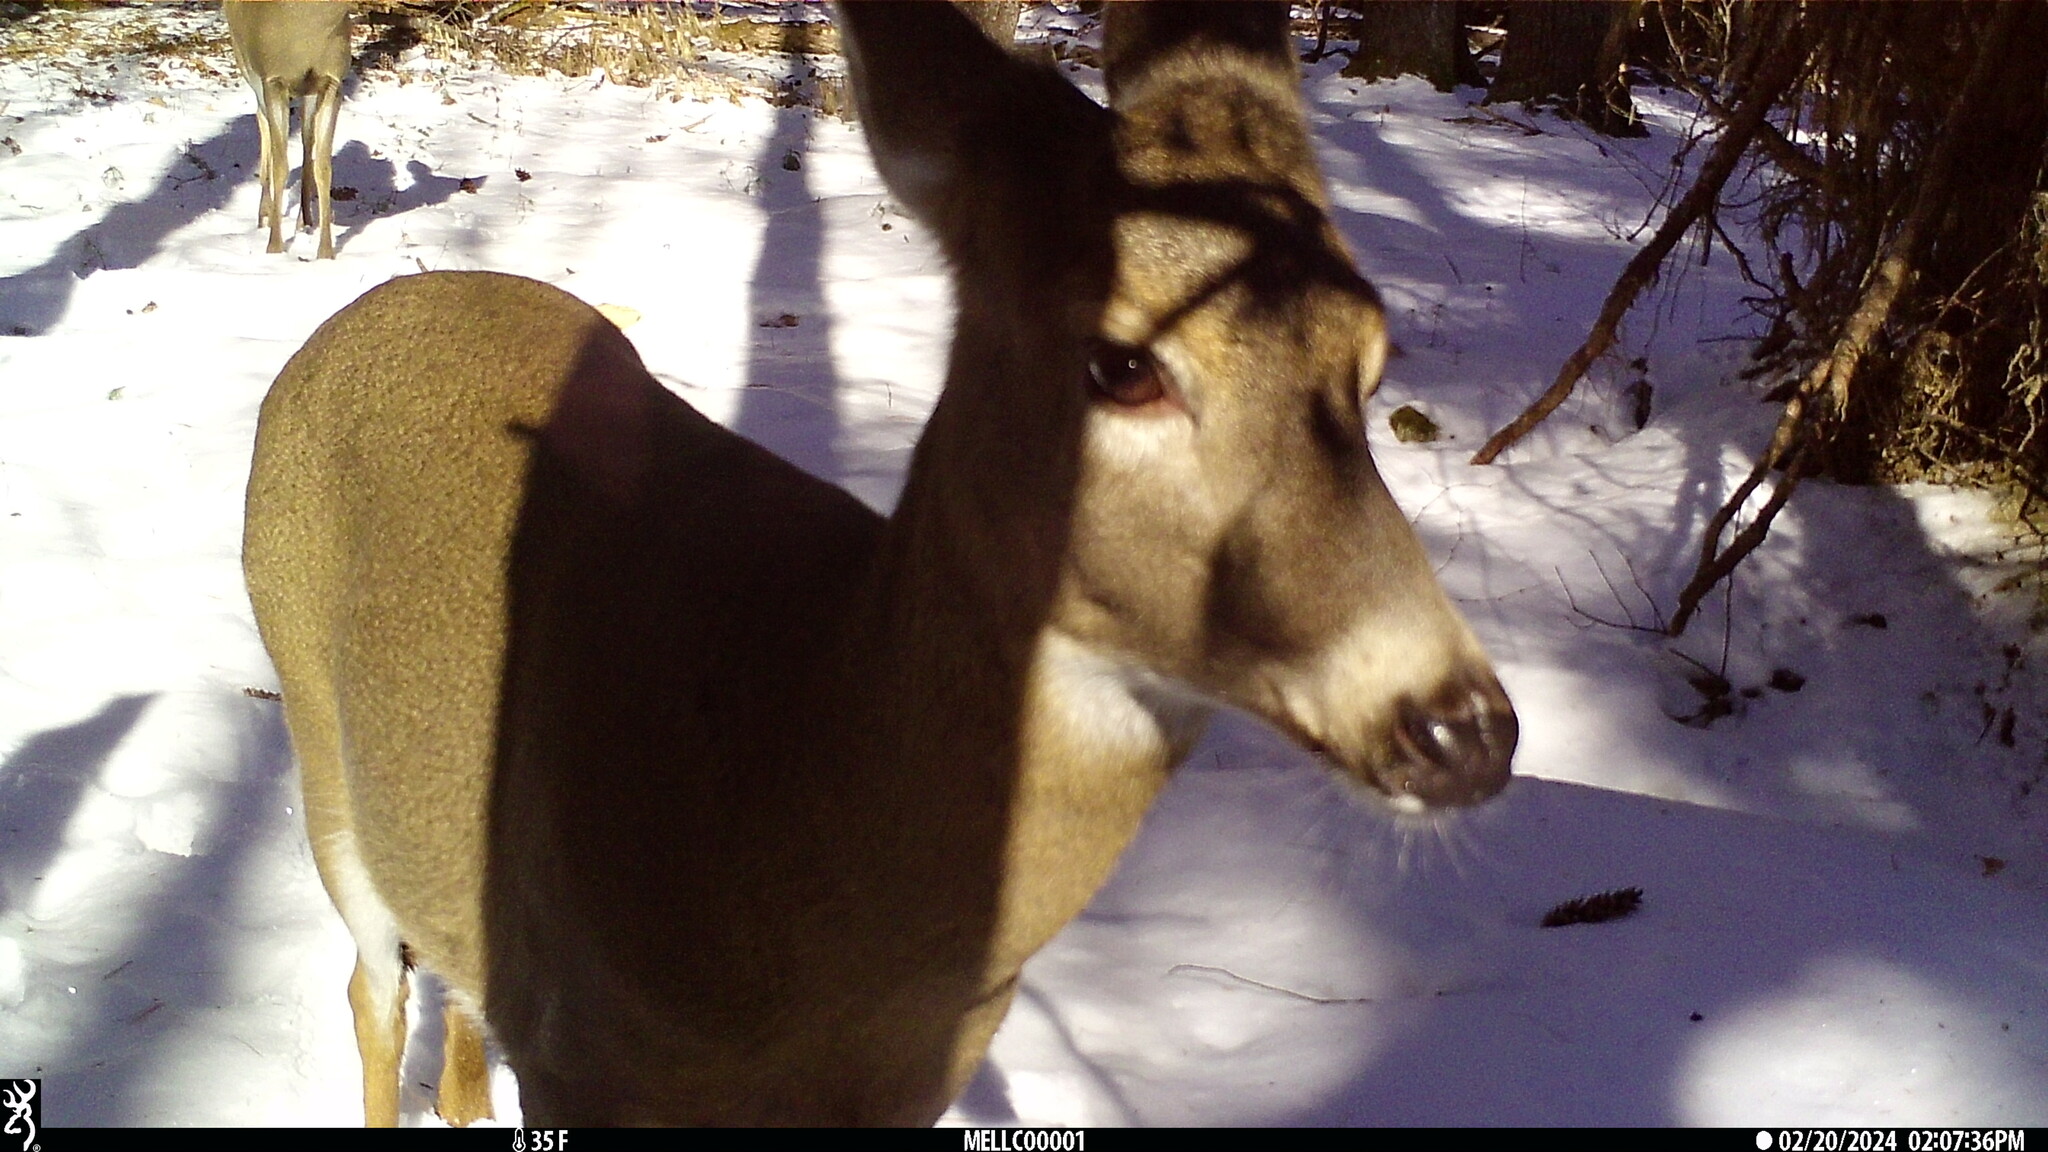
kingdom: Animalia
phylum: Chordata
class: Mammalia
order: Artiodactyla
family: Cervidae
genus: Odocoileus
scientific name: Odocoileus virginianus
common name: White-tailed deer
